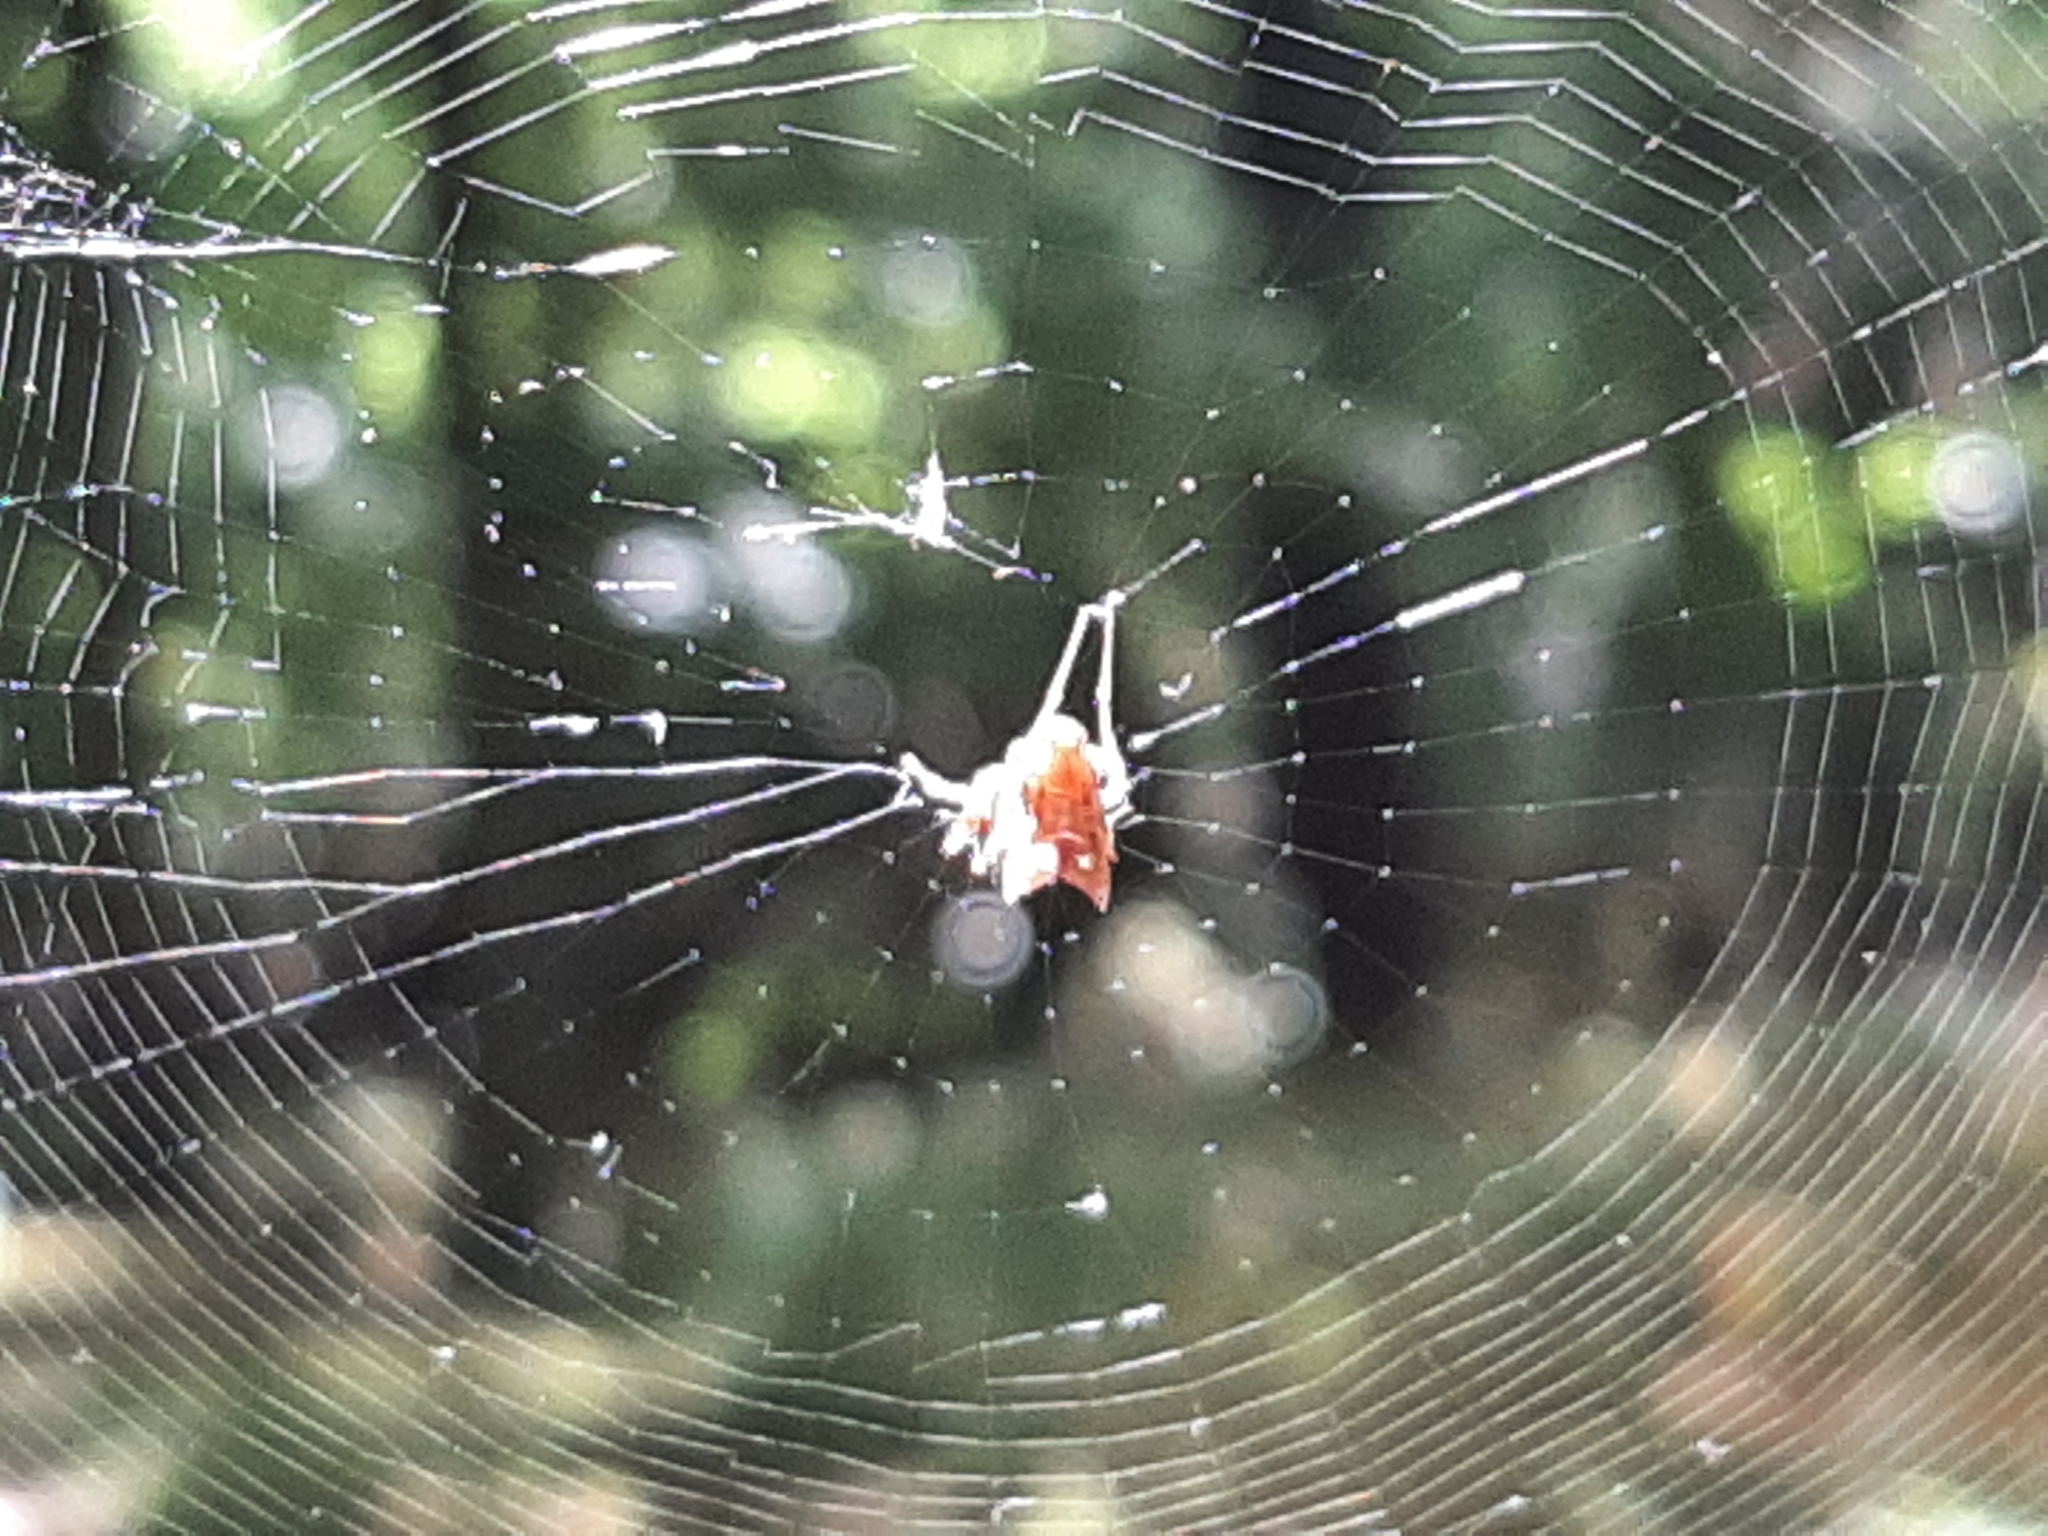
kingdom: Animalia
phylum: Arthropoda
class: Arachnida
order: Araneae
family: Araneidae
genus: Micrathena
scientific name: Micrathena gracilis
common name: Orb weavers
